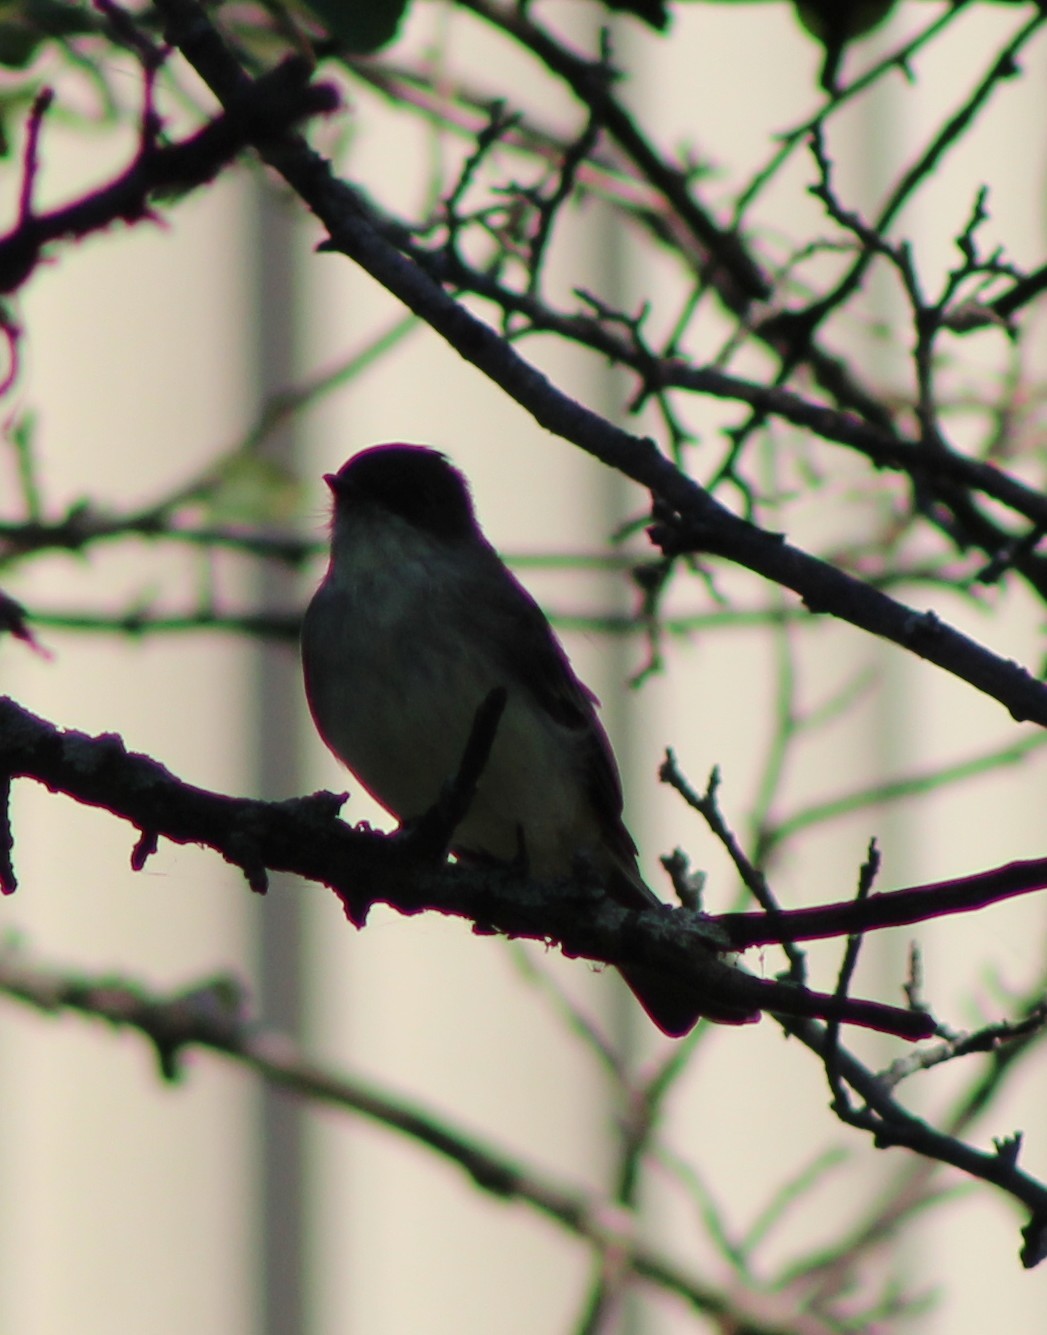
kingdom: Animalia
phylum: Chordata
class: Aves
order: Passeriformes
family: Tyrannidae
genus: Sayornis
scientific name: Sayornis phoebe
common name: Eastern phoebe
